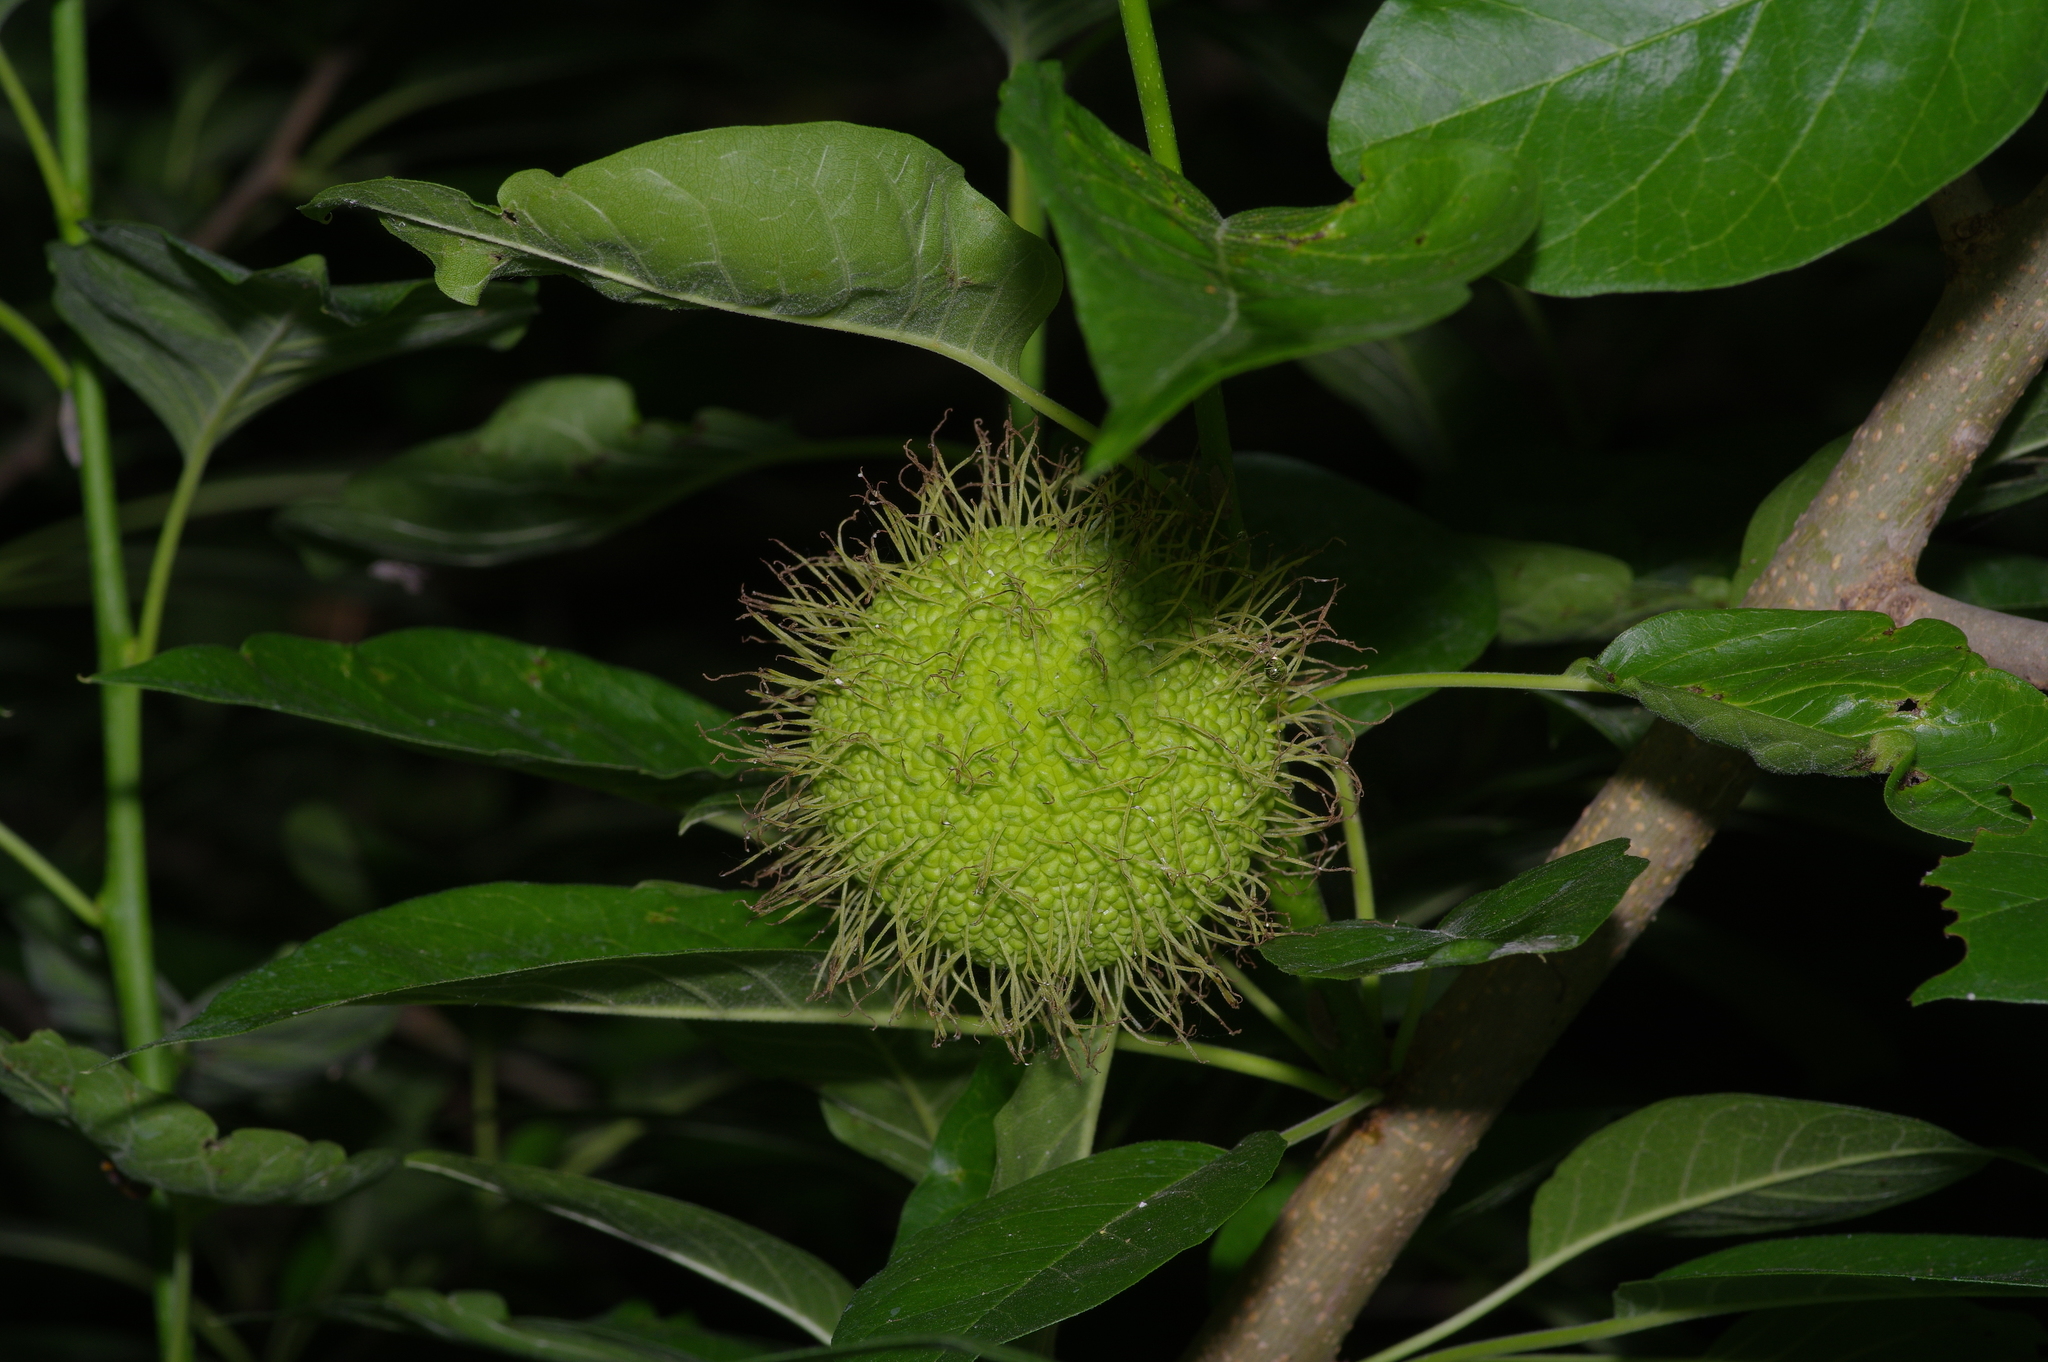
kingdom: Plantae
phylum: Tracheophyta
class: Magnoliopsida
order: Rosales
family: Moraceae
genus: Maclura
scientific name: Maclura pomifera
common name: Osage-orange
